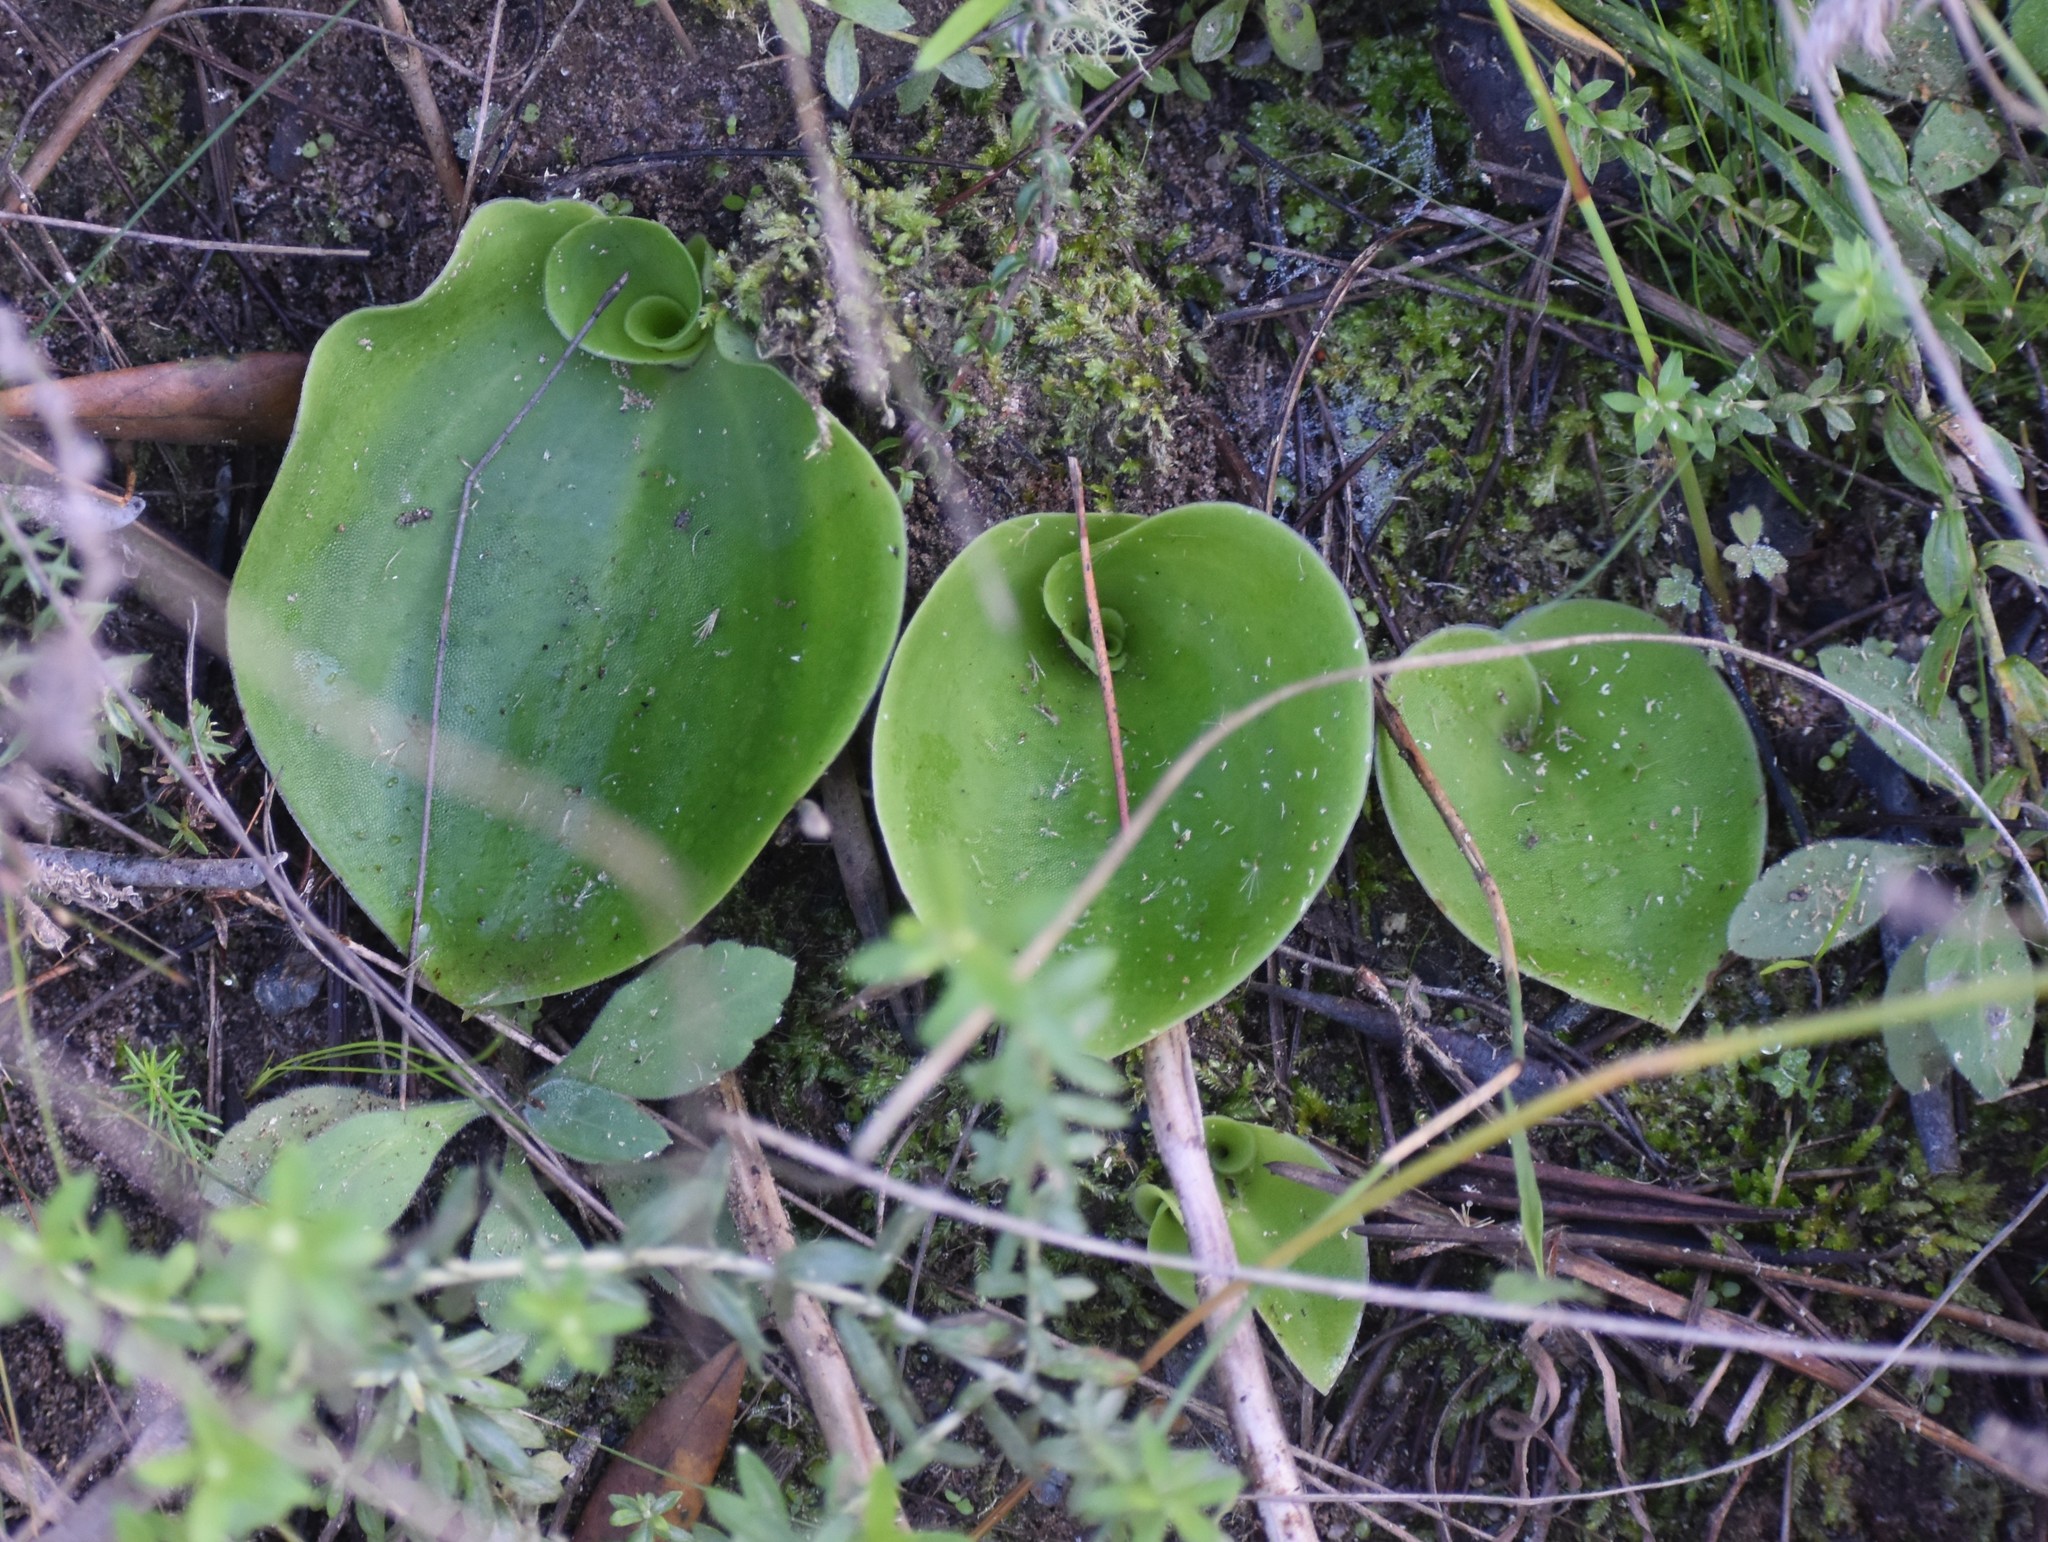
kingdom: Plantae
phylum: Tracheophyta
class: Liliopsida
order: Asparagales
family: Orchidaceae
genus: Satyrium
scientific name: Satyrium acuminatum
